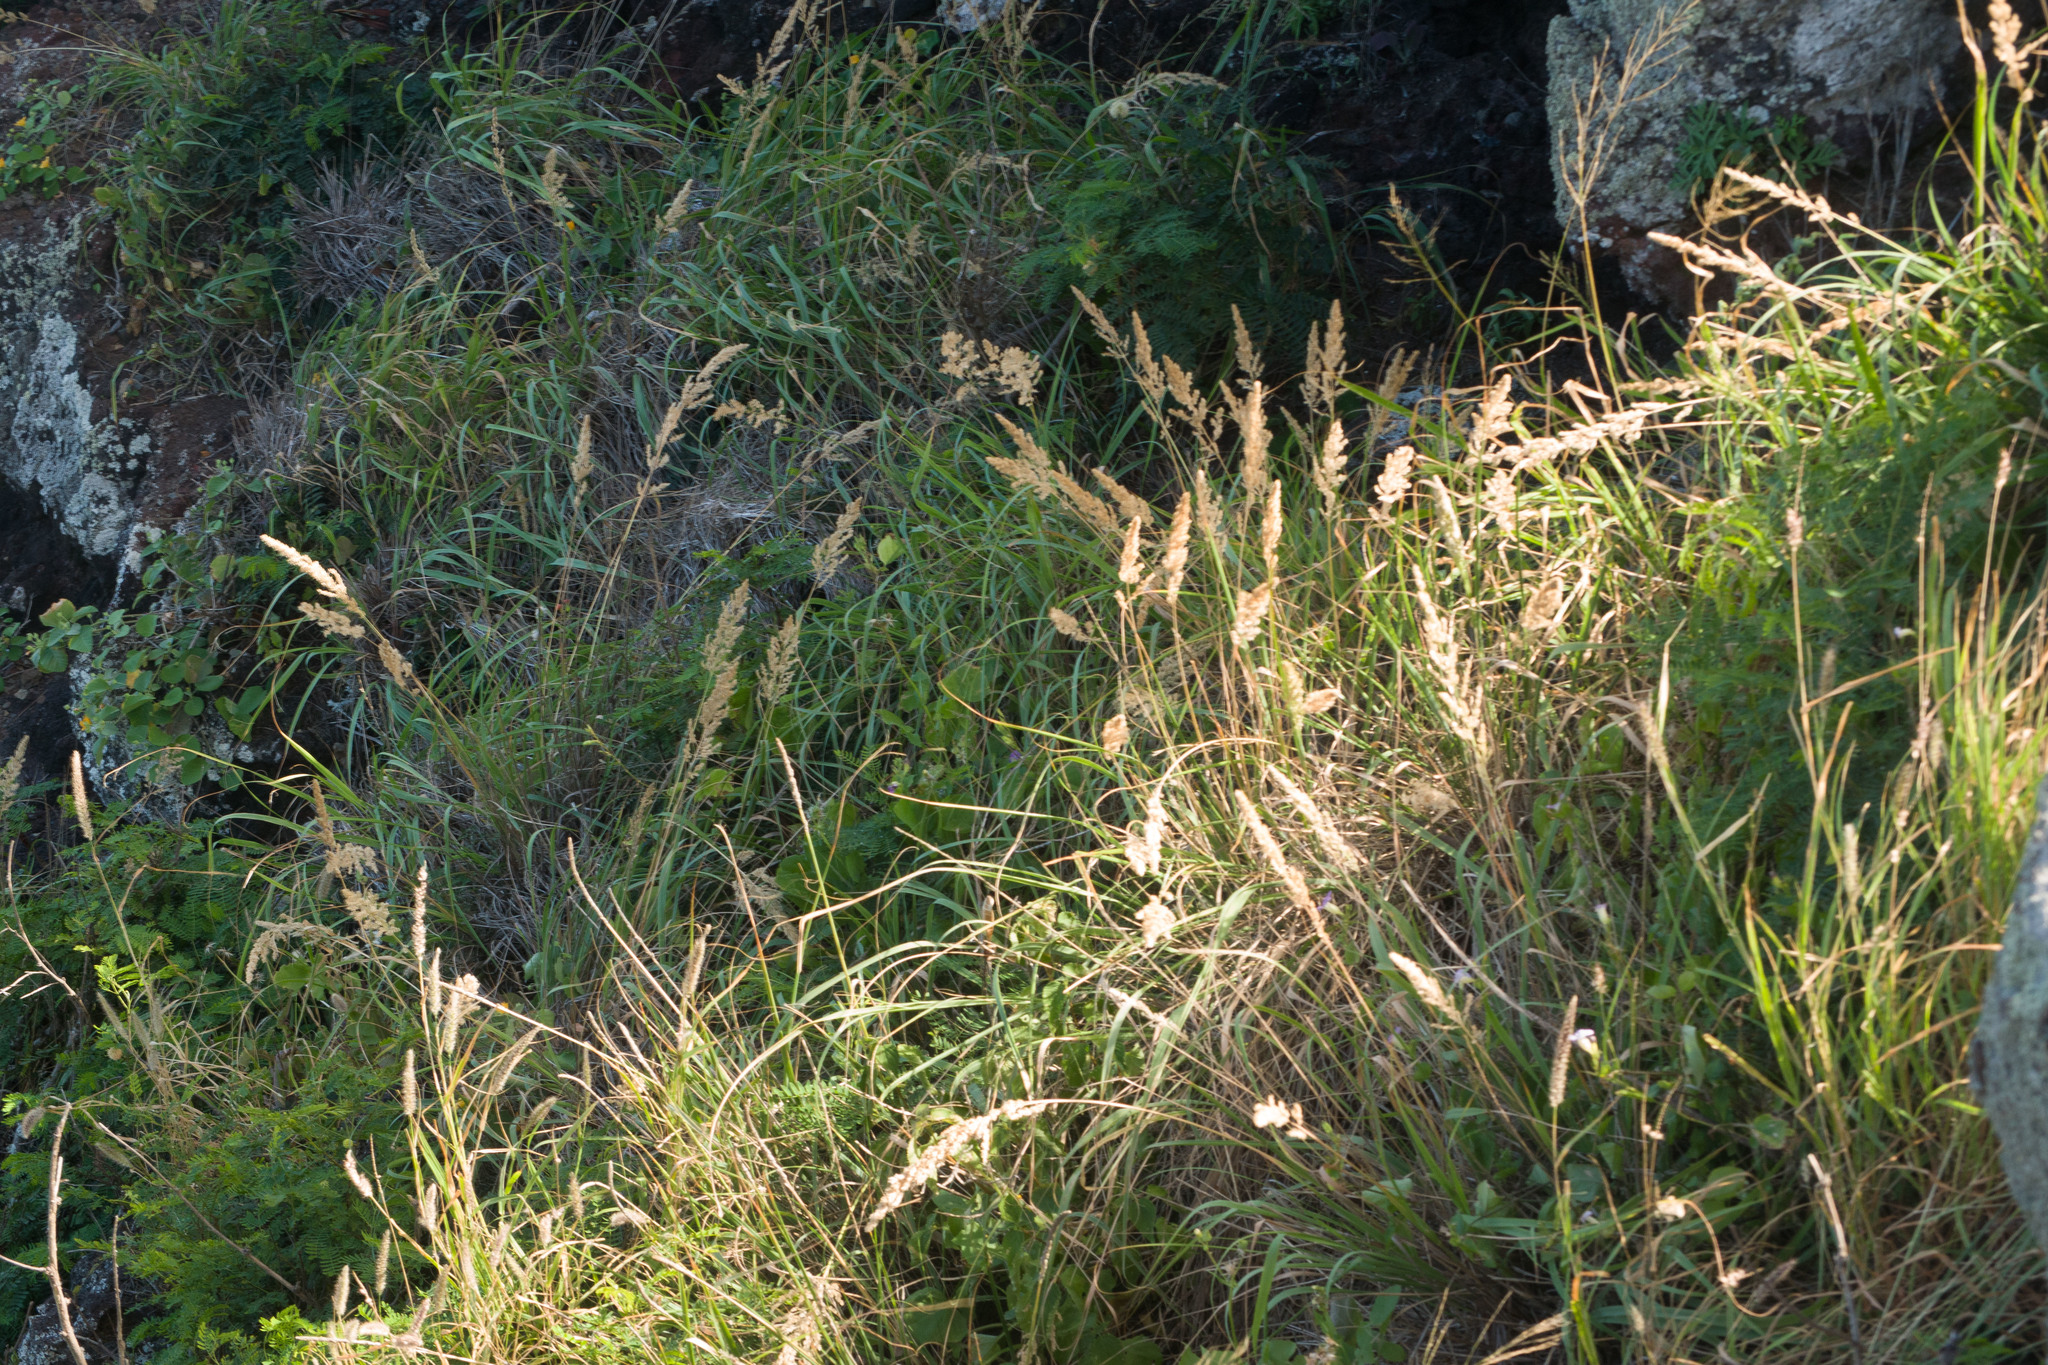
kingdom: Plantae
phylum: Tracheophyta
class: Liliopsida
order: Poales
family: Poaceae
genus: Eragrostis
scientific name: Eragrostis variabilis
